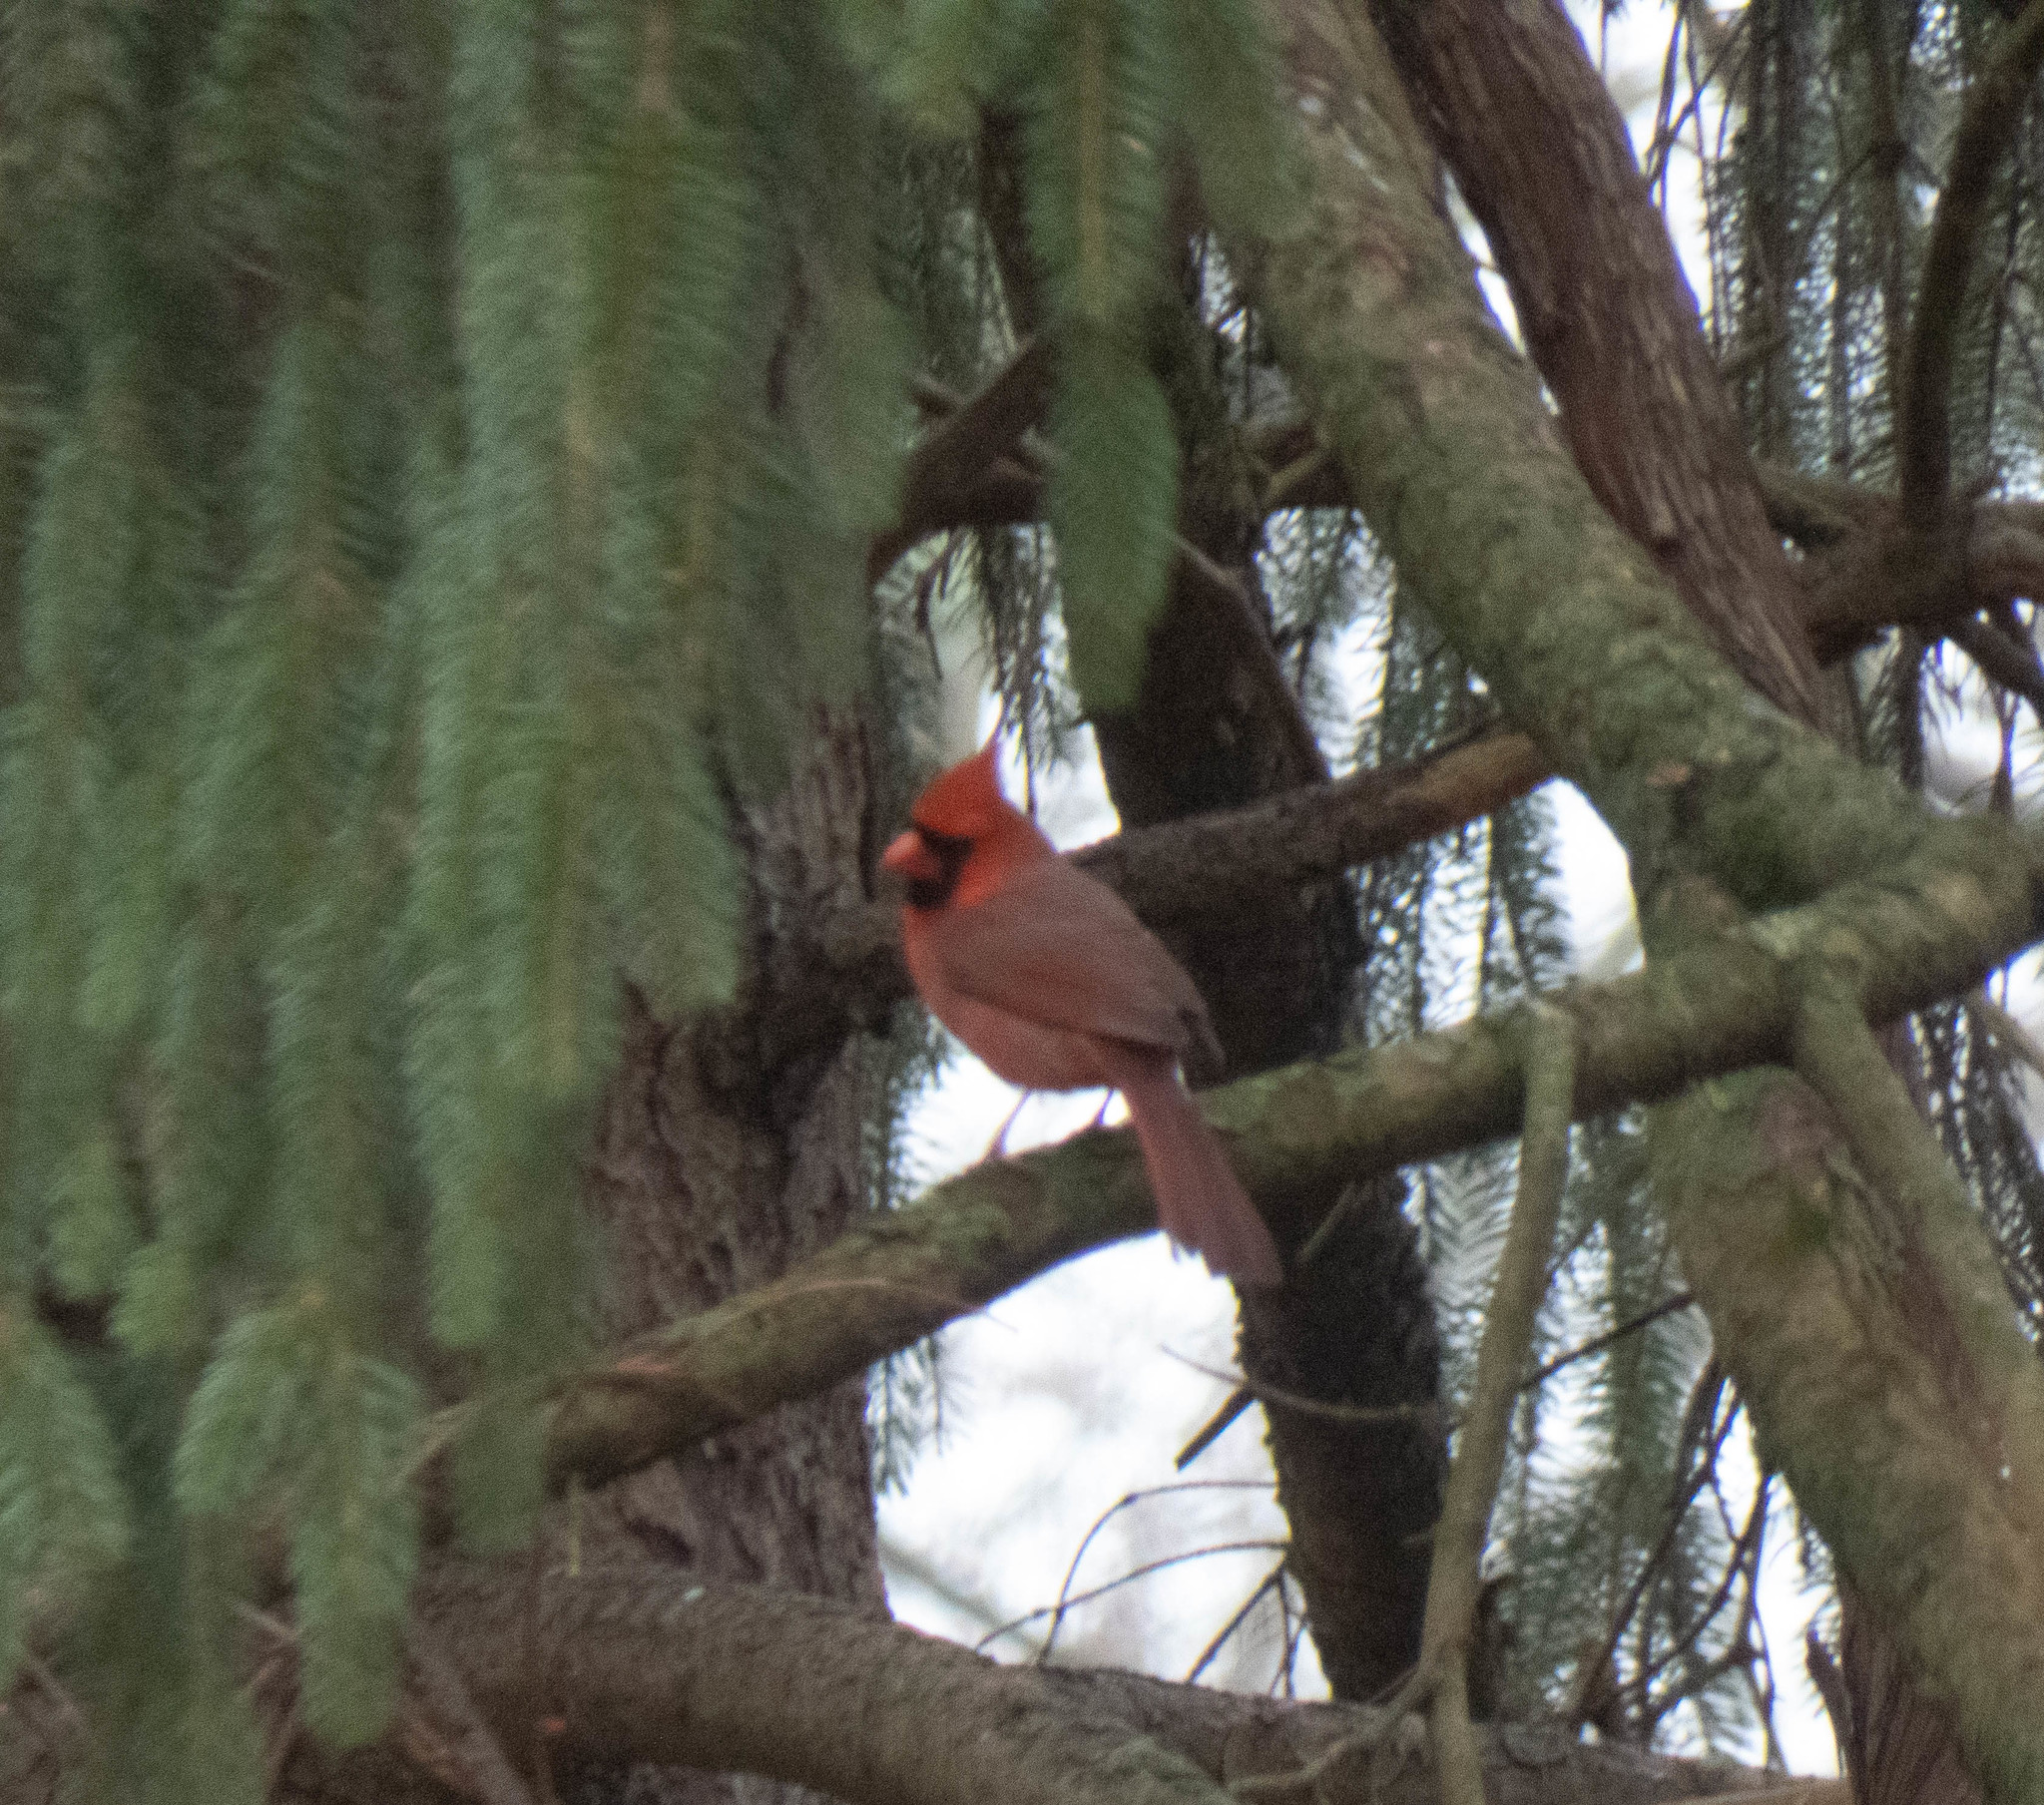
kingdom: Animalia
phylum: Chordata
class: Aves
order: Passeriformes
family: Cardinalidae
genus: Cardinalis
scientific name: Cardinalis cardinalis
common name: Northern cardinal
